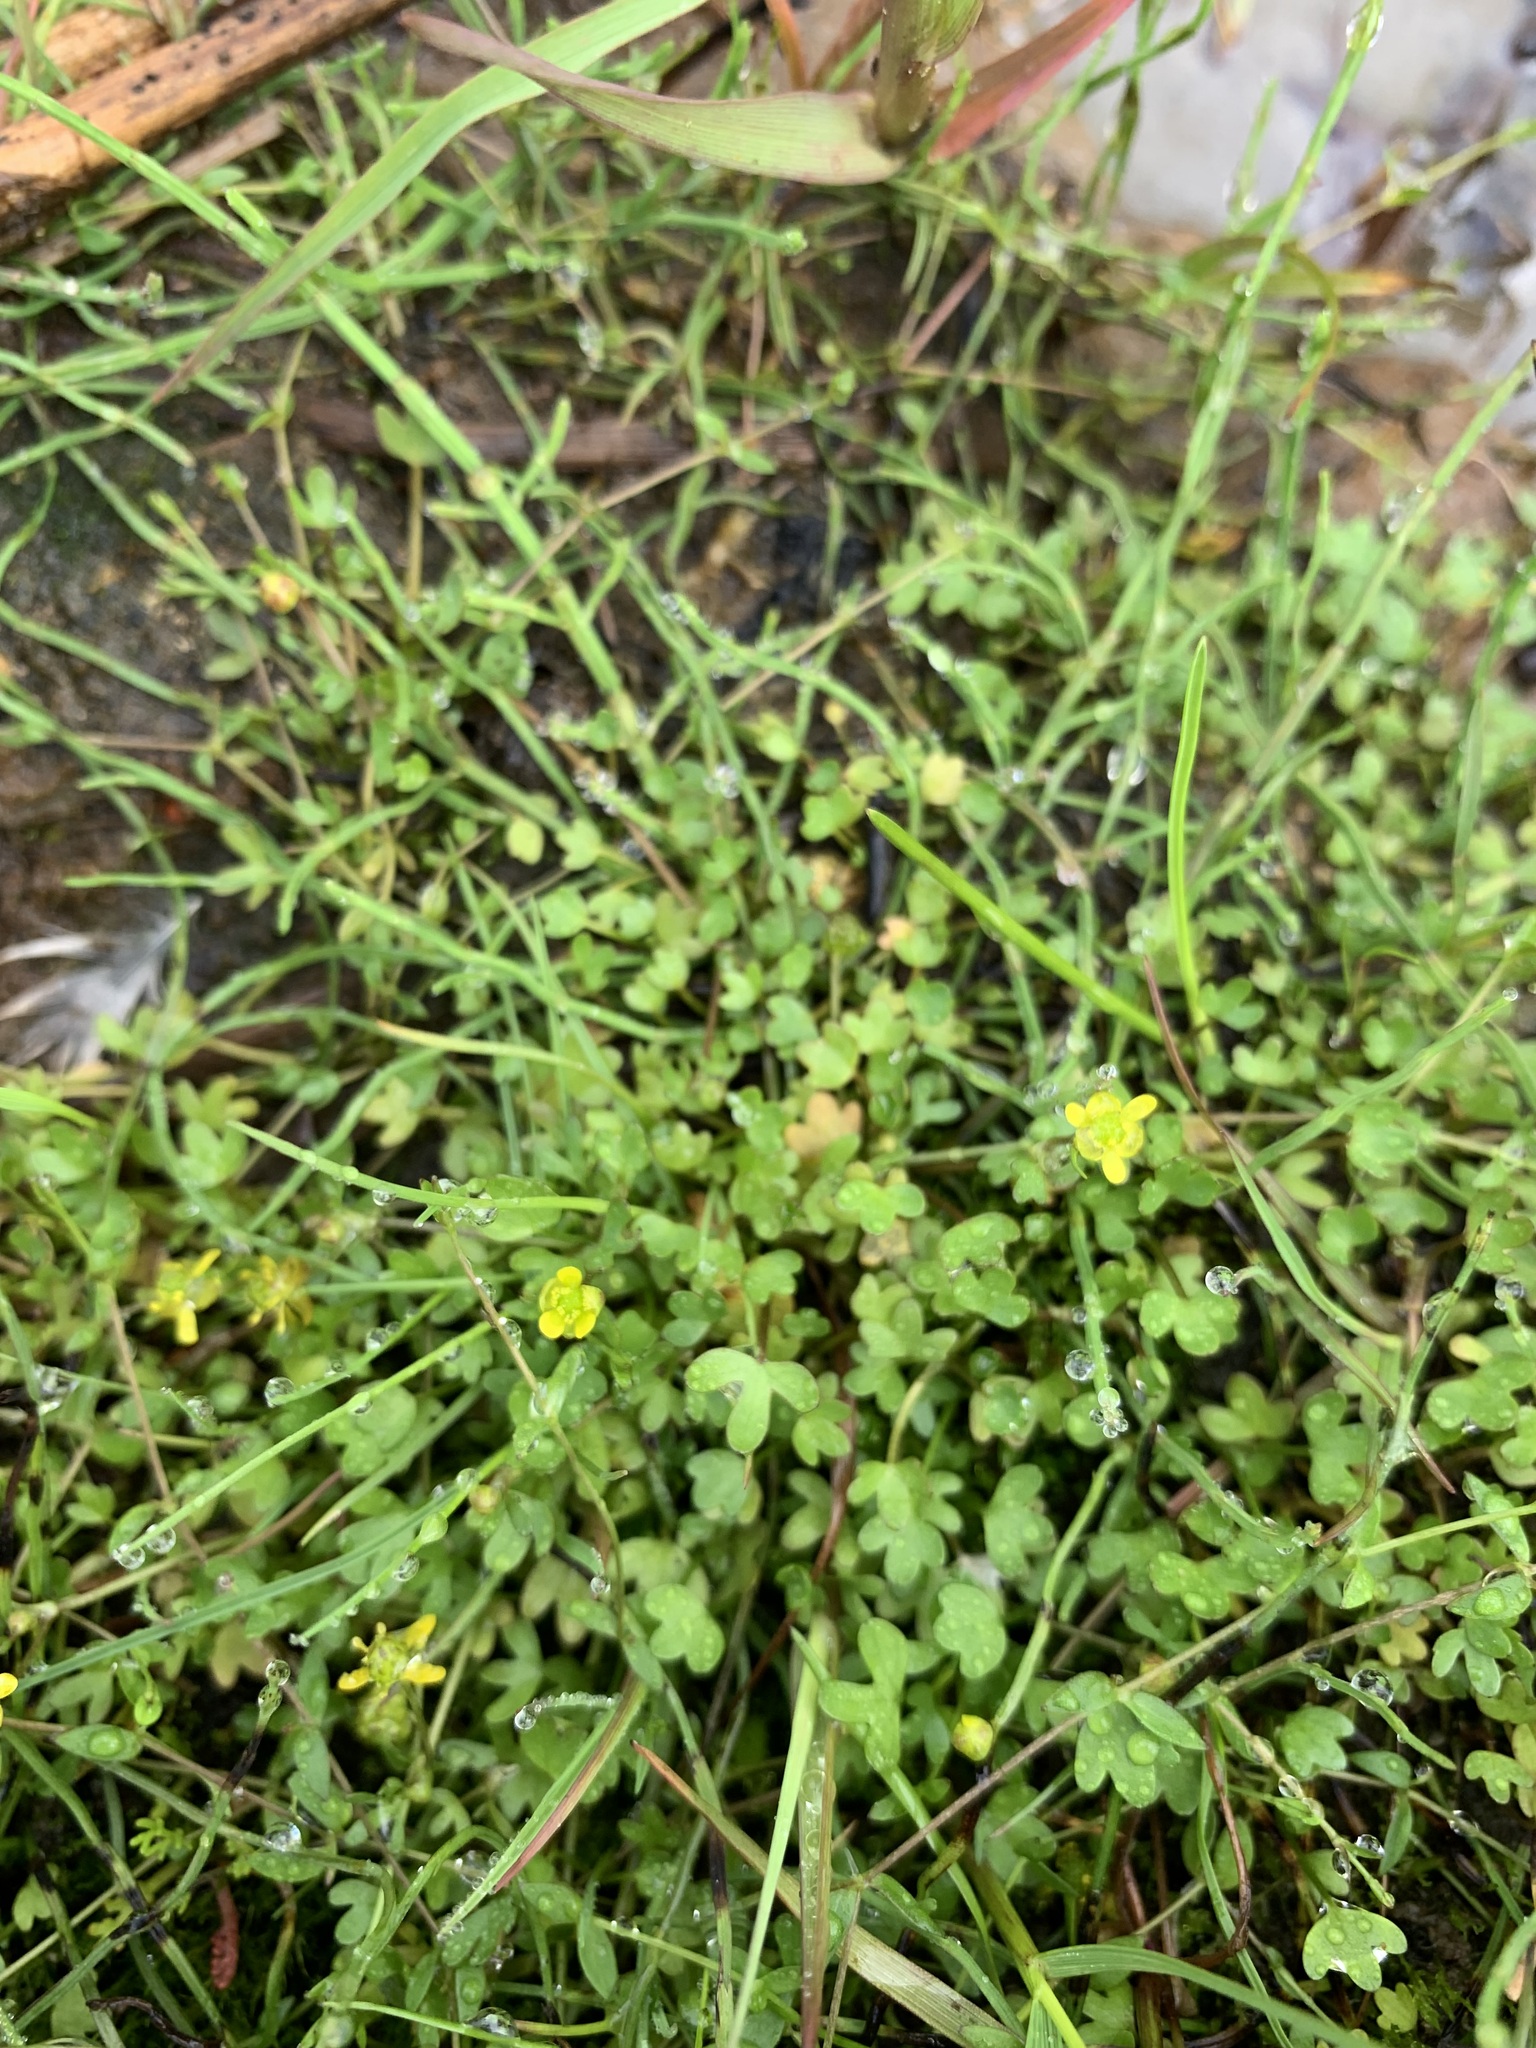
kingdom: Plantae
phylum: Tracheophyta
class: Magnoliopsida
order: Ranunculales
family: Ranunculaceae
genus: Ranunculus
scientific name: Ranunculus hyperboreus
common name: Arctic buttercup
